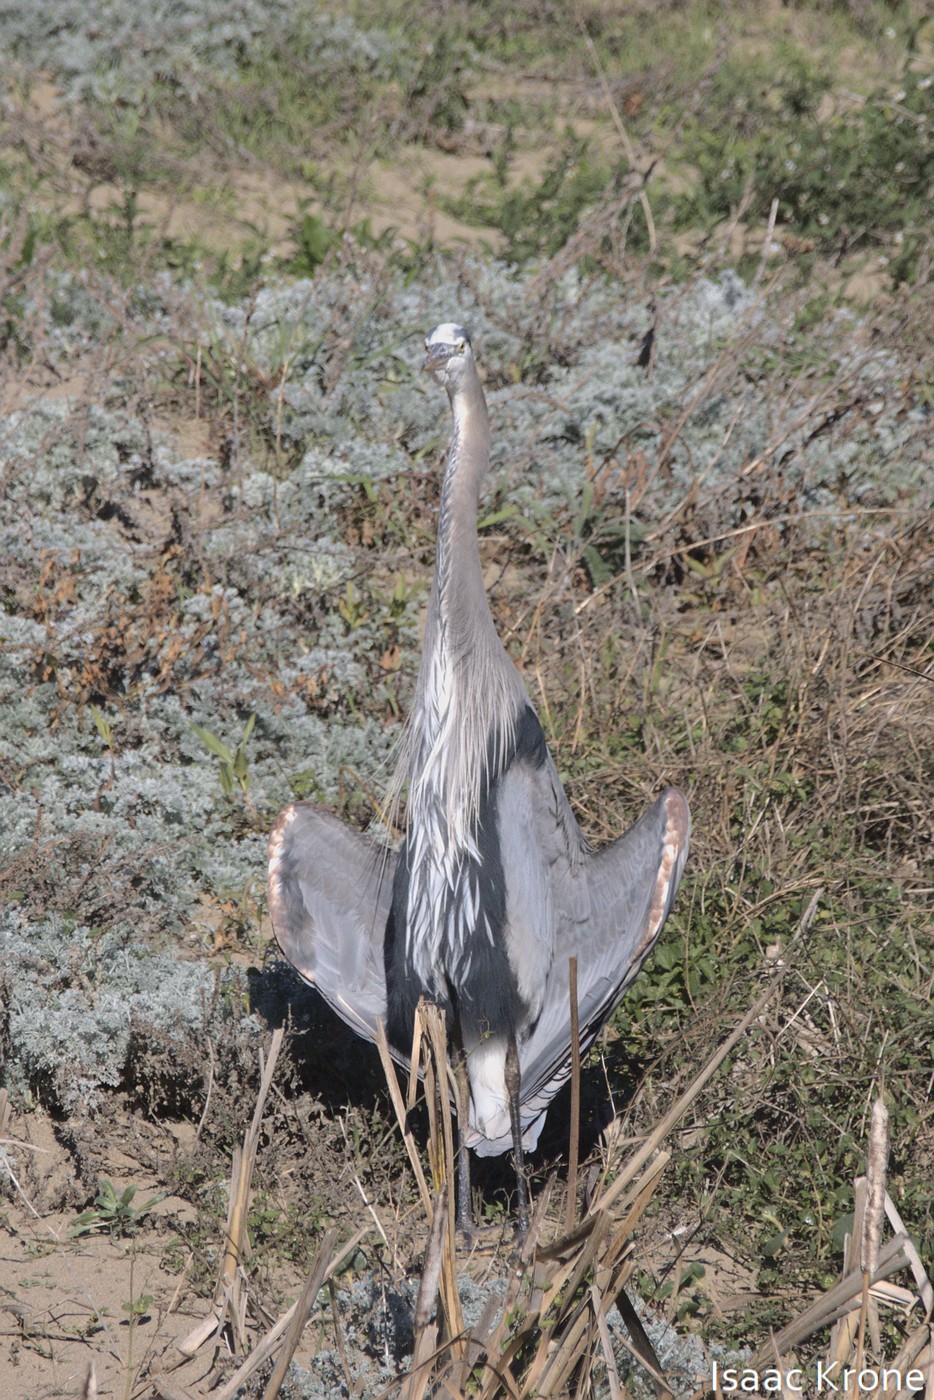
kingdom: Animalia
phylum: Chordata
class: Aves
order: Pelecaniformes
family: Ardeidae
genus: Ardea
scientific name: Ardea herodias
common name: Great blue heron
